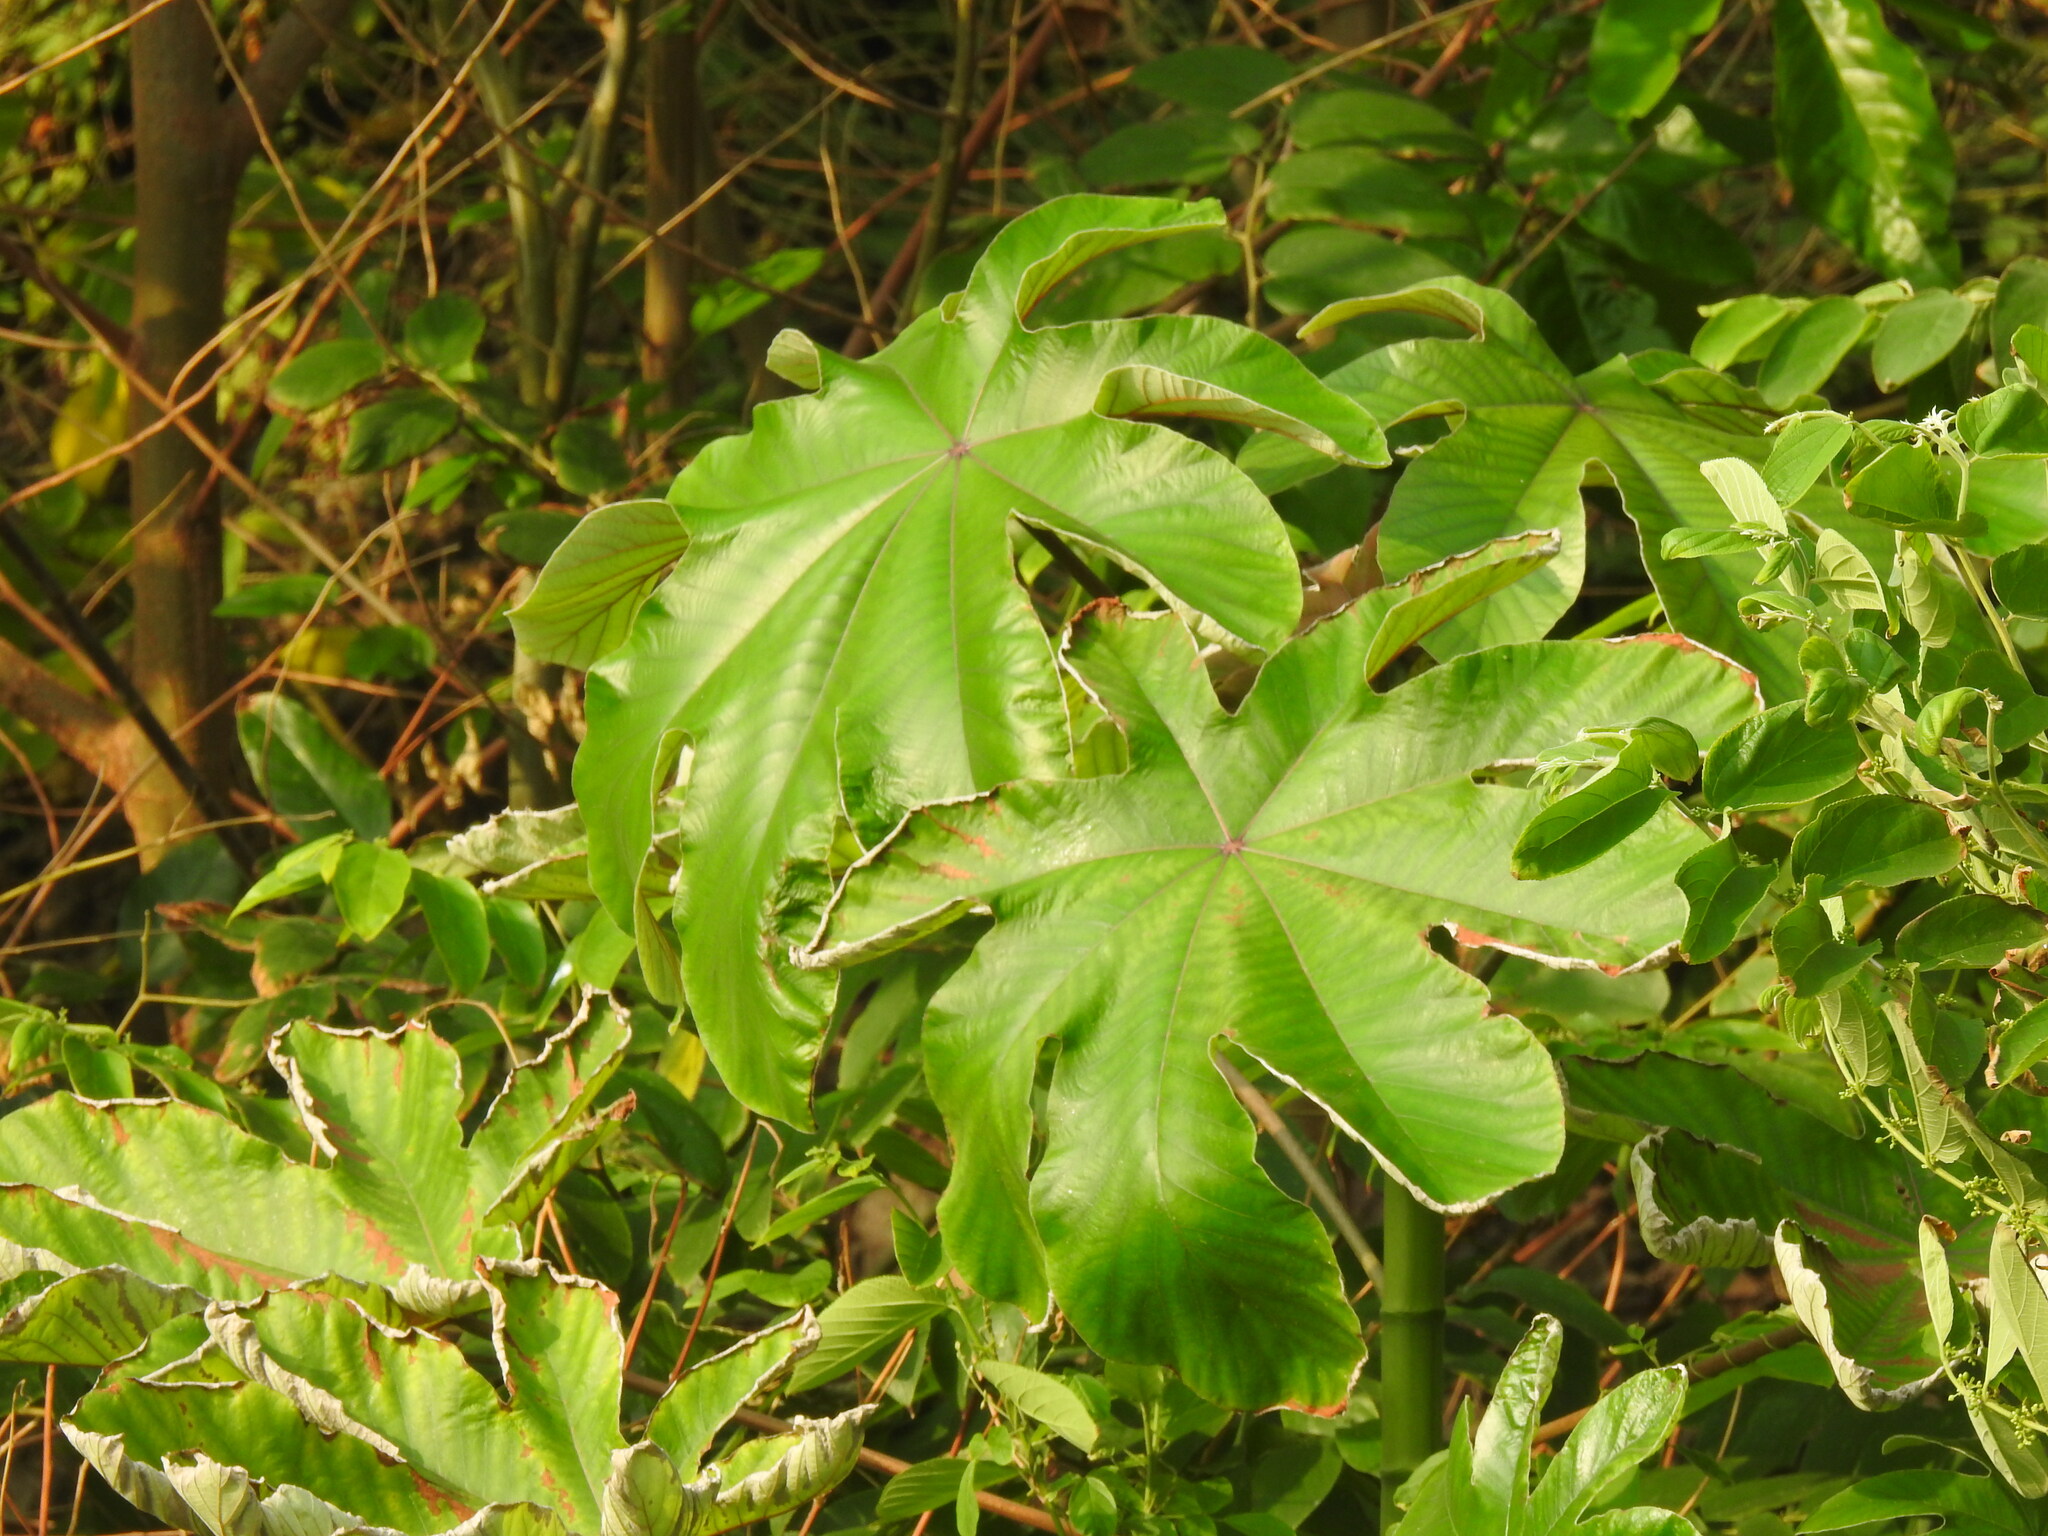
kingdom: Plantae
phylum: Tracheophyta
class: Magnoliopsida
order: Rosales
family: Urticaceae
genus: Cecropia
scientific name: Cecropia peltata
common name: Trumpet-tree
